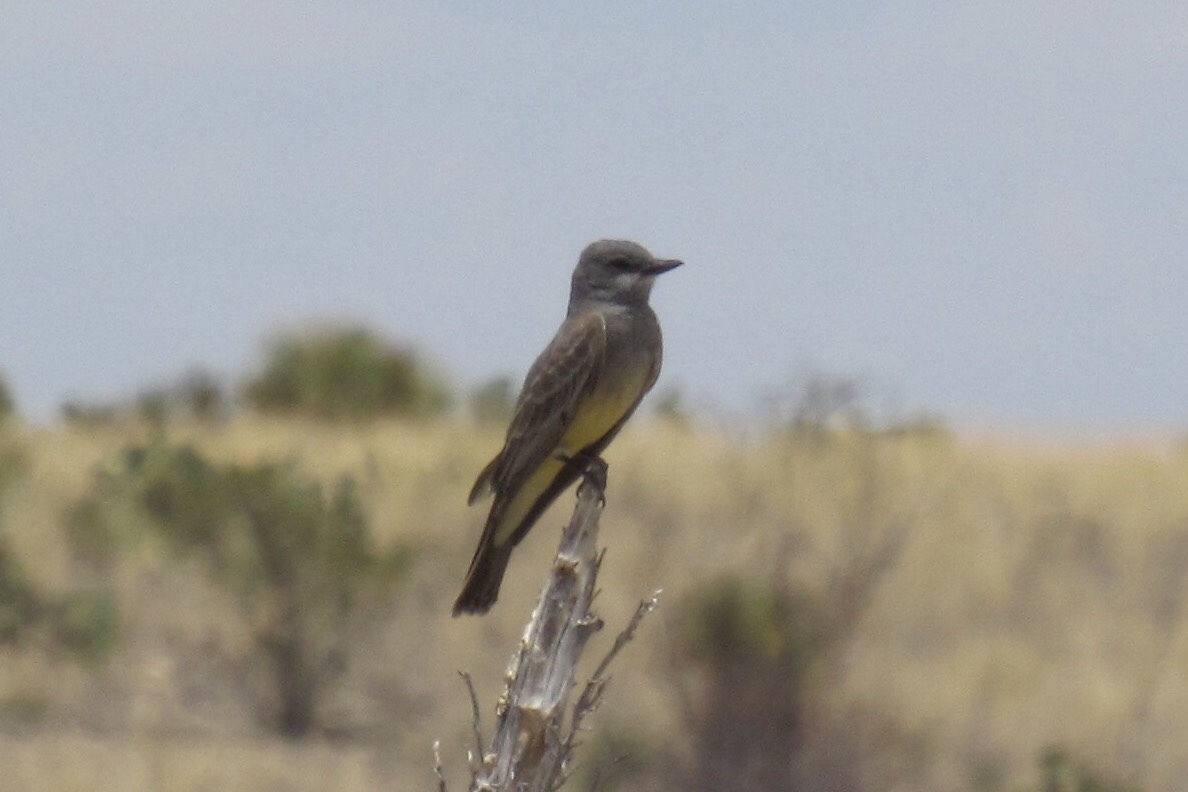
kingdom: Animalia
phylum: Chordata
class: Aves
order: Passeriformes
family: Tyrannidae
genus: Tyrannus
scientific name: Tyrannus vociferans
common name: Cassin's kingbird
